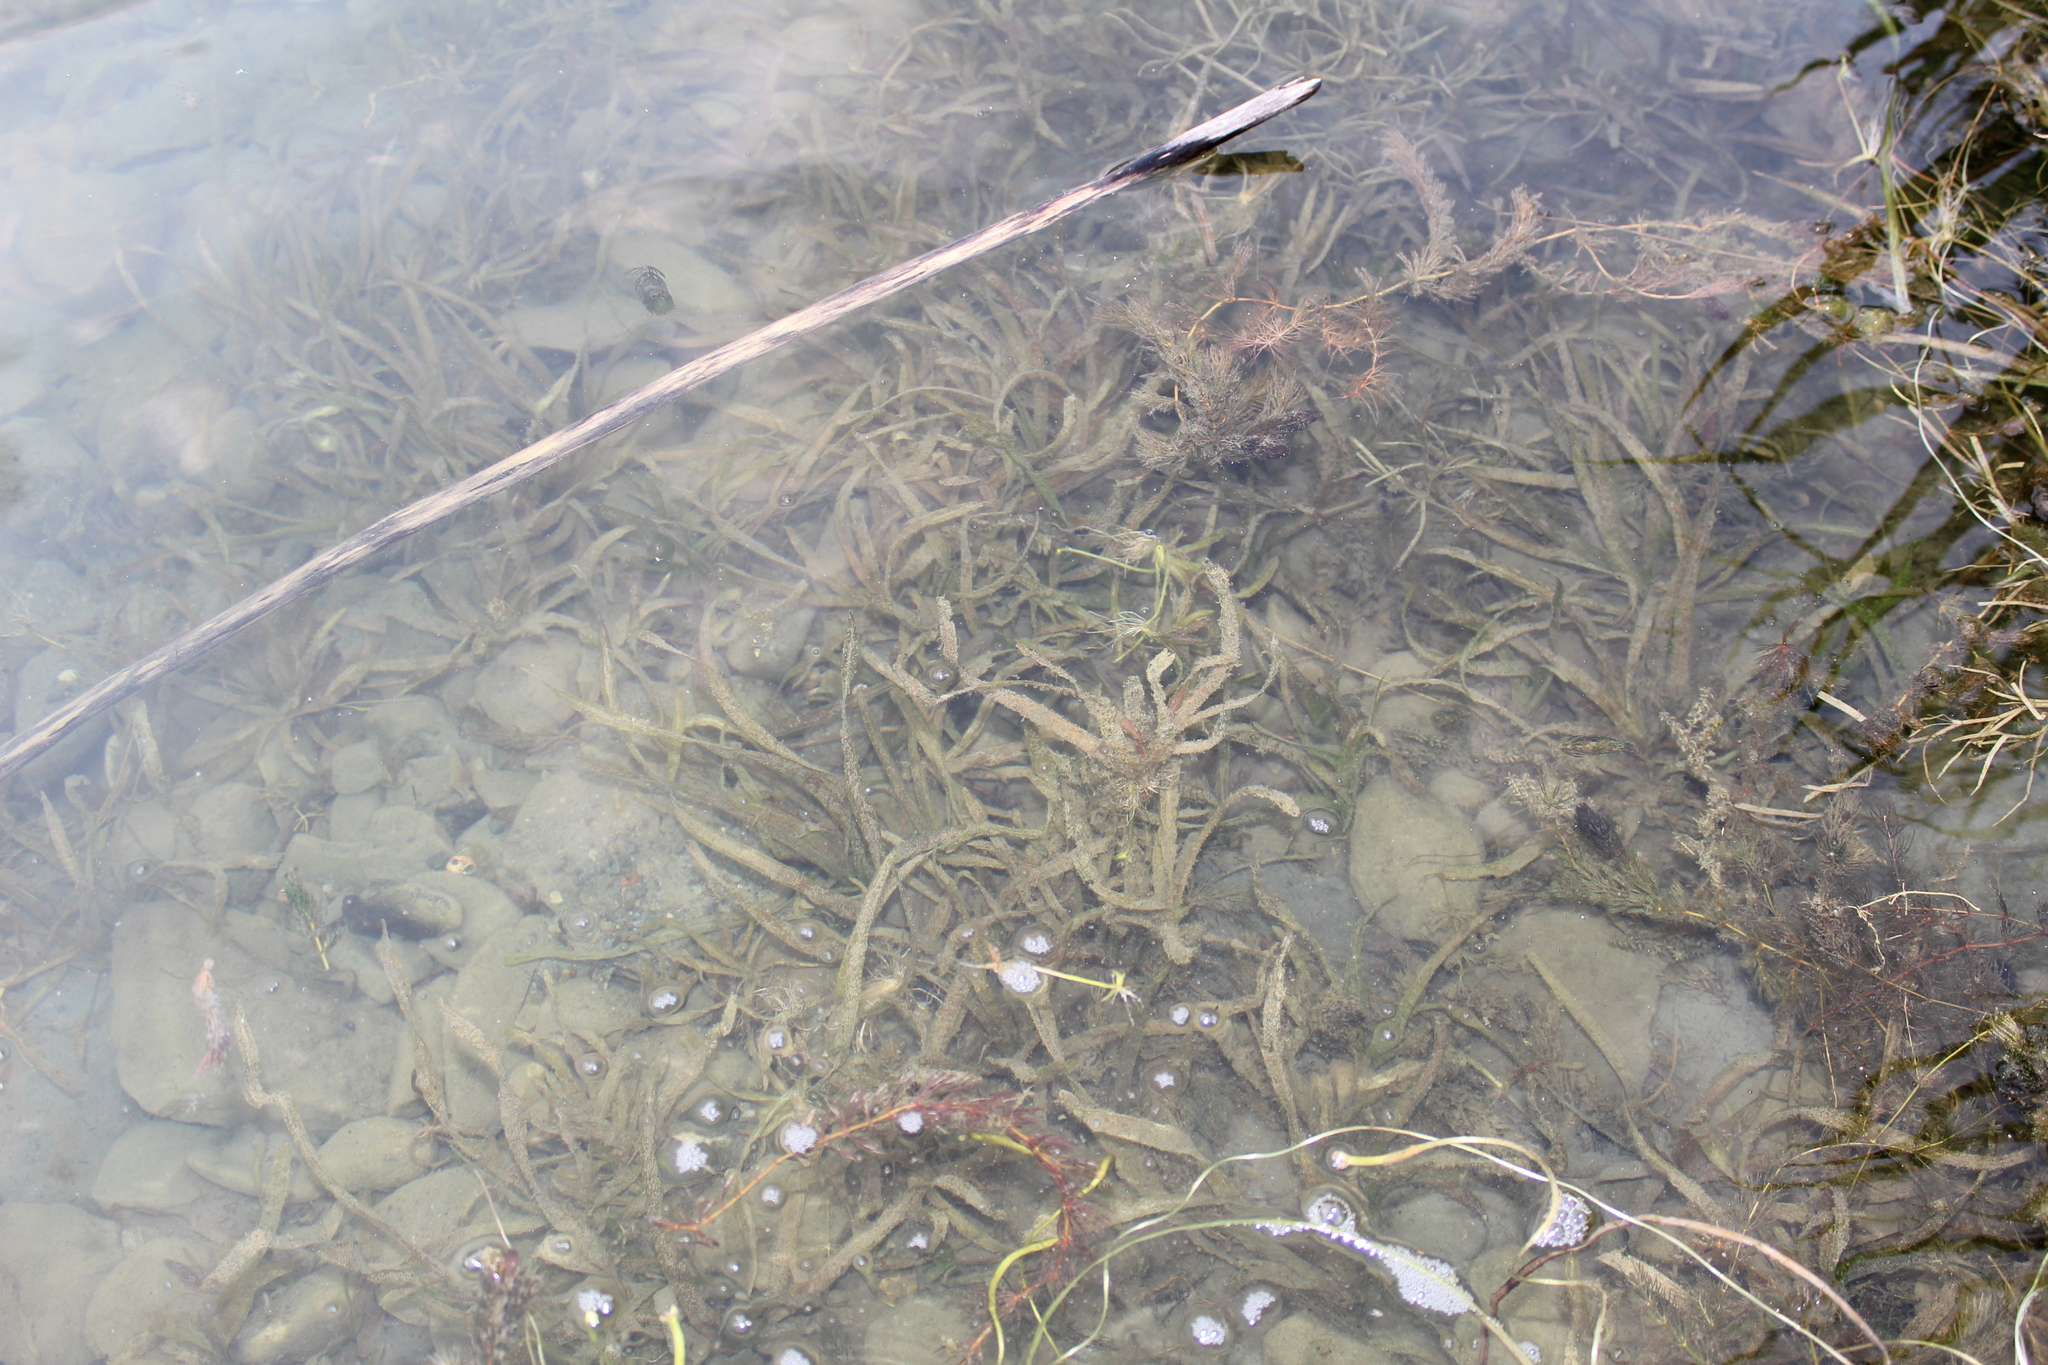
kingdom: Plantae
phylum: Tracheophyta
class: Liliopsida
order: Alismatales
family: Potamogetonaceae
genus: Potamogeton
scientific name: Potamogeton
